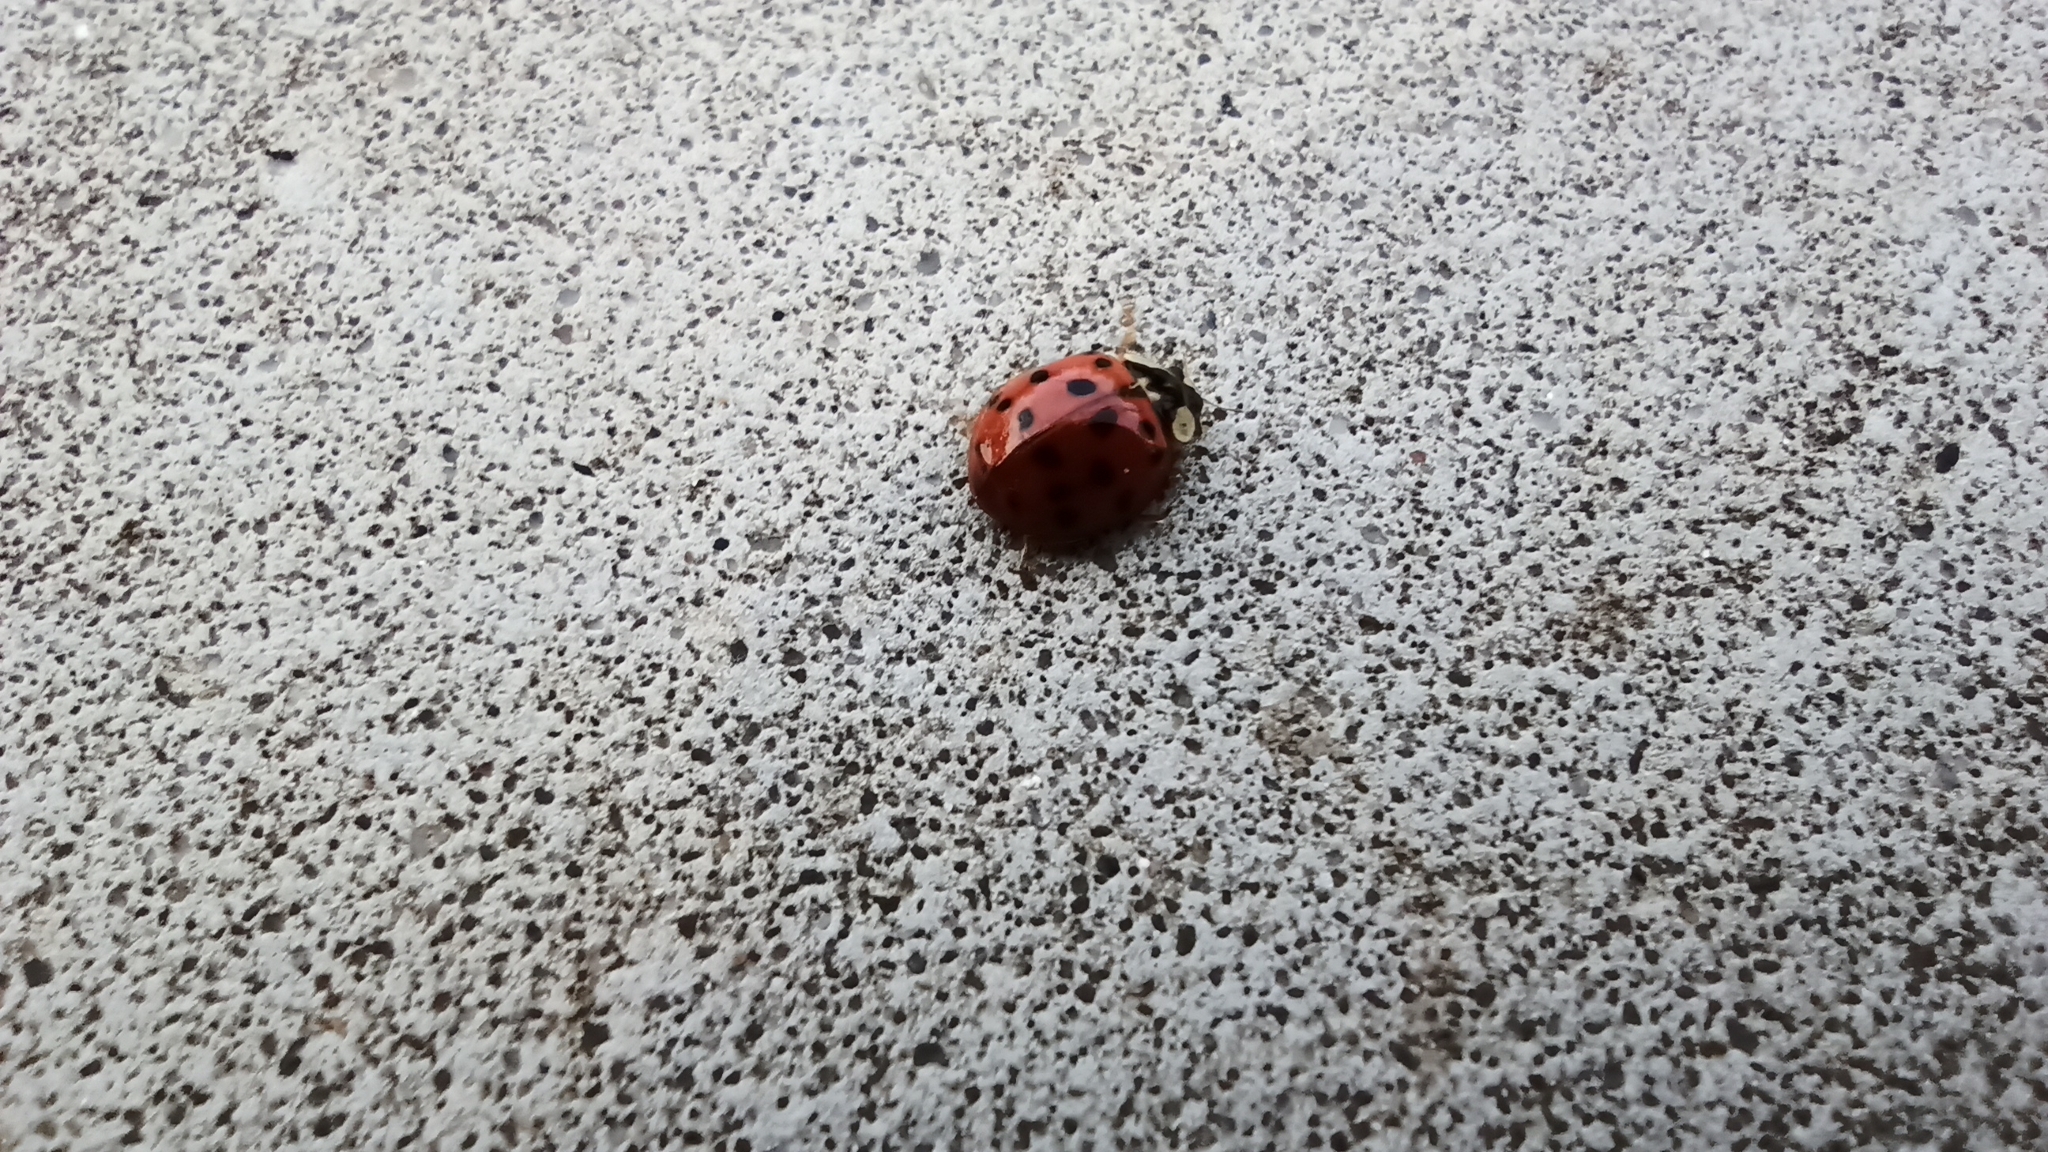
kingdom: Animalia
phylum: Arthropoda
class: Insecta
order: Coleoptera
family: Coccinellidae
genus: Harmonia
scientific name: Harmonia axyridis
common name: Harlequin ladybird
